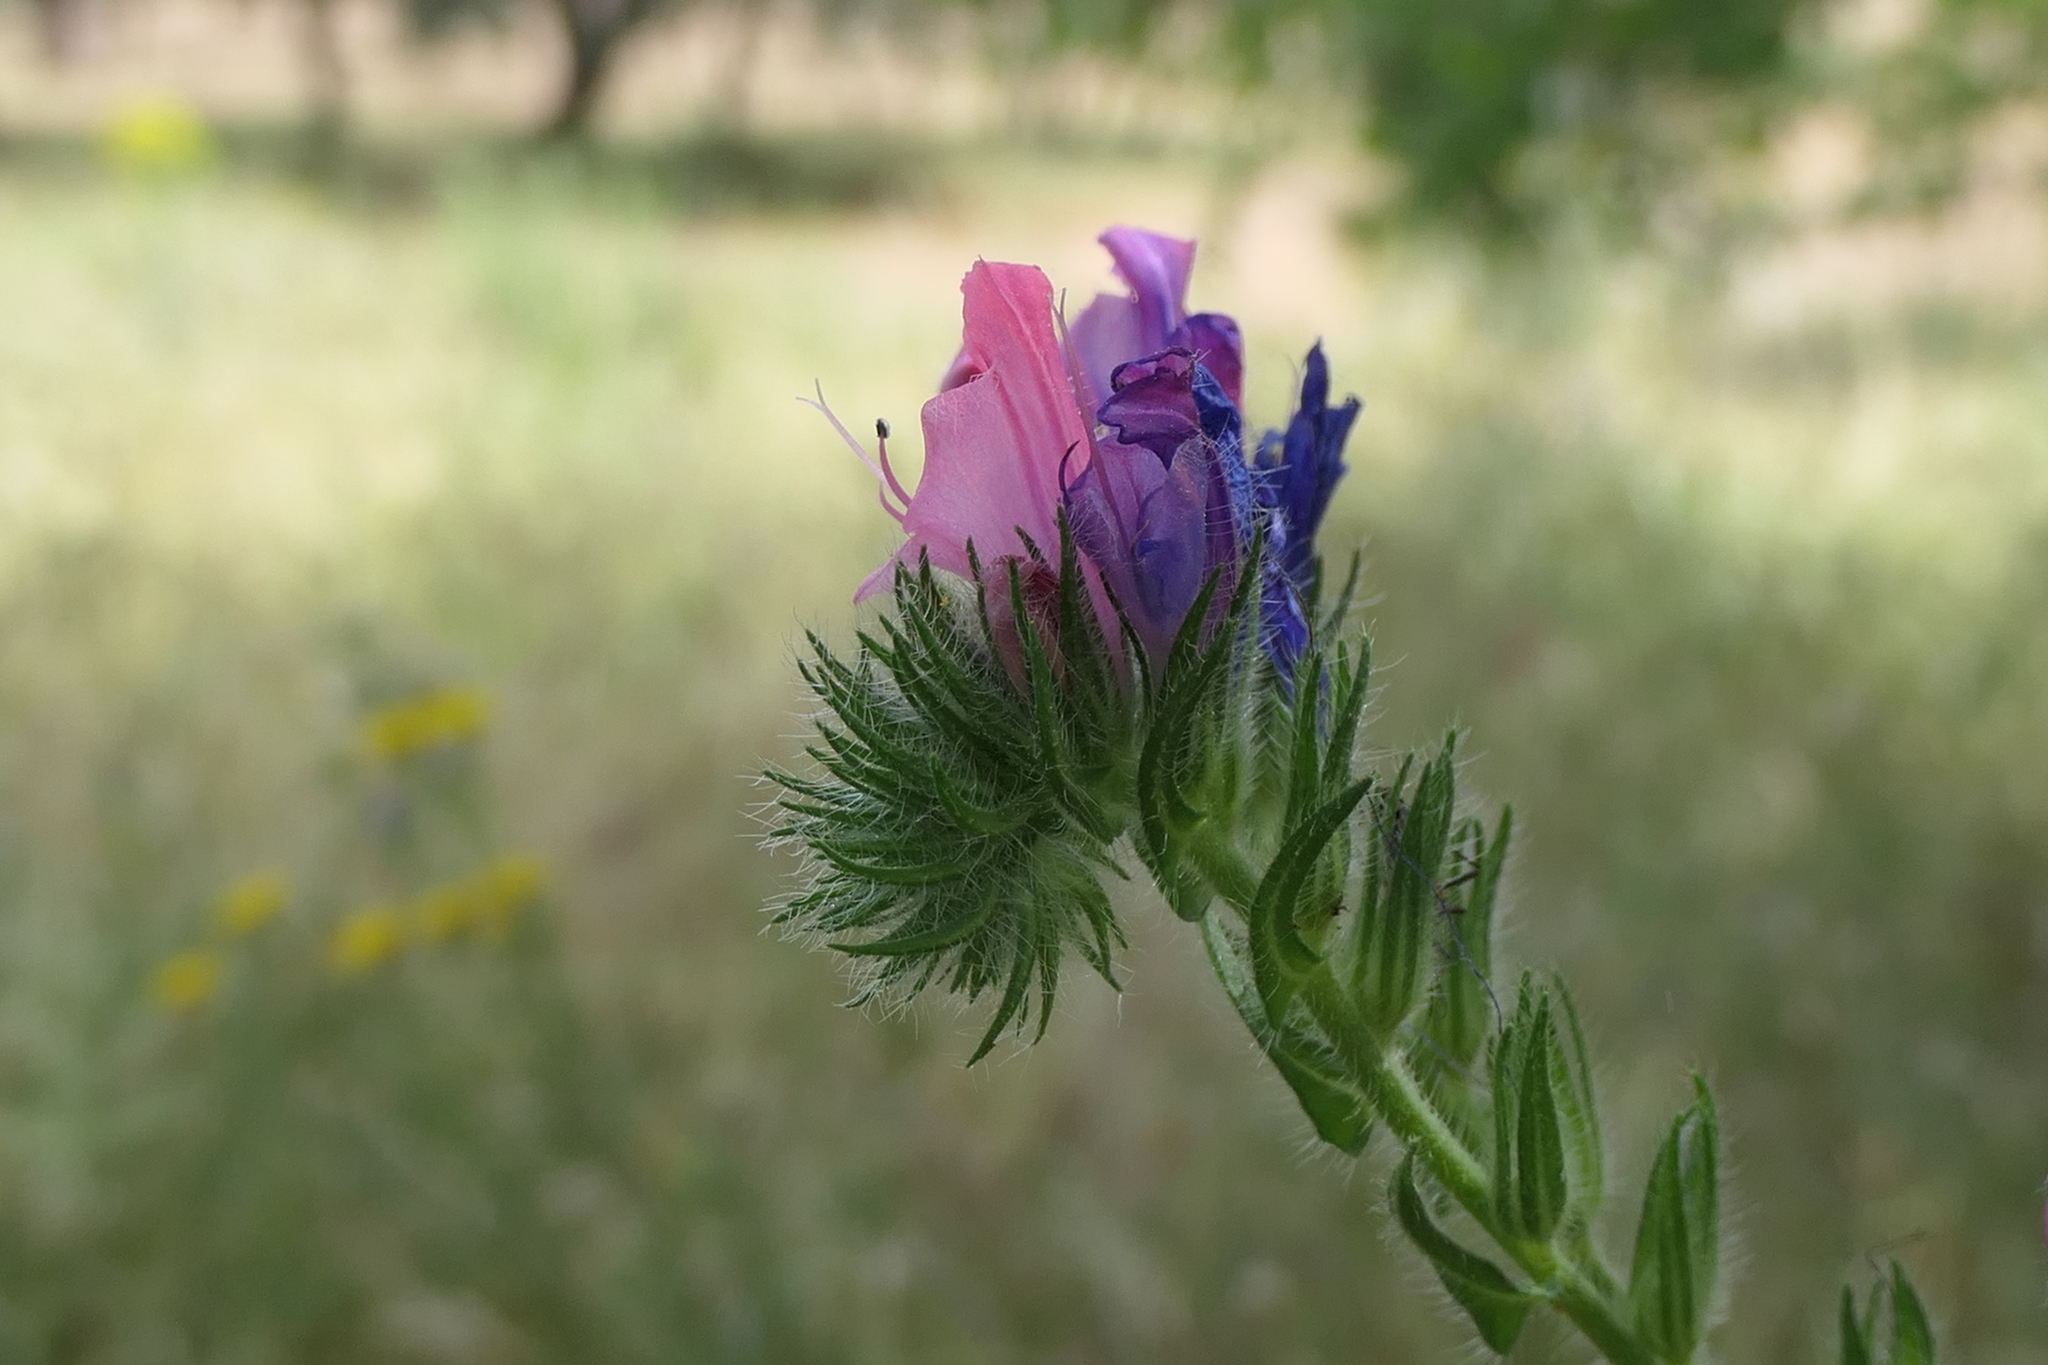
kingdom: Plantae
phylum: Tracheophyta
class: Magnoliopsida
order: Boraginales
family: Boraginaceae
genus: Echium
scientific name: Echium plantagineum
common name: Purple viper's-bugloss
